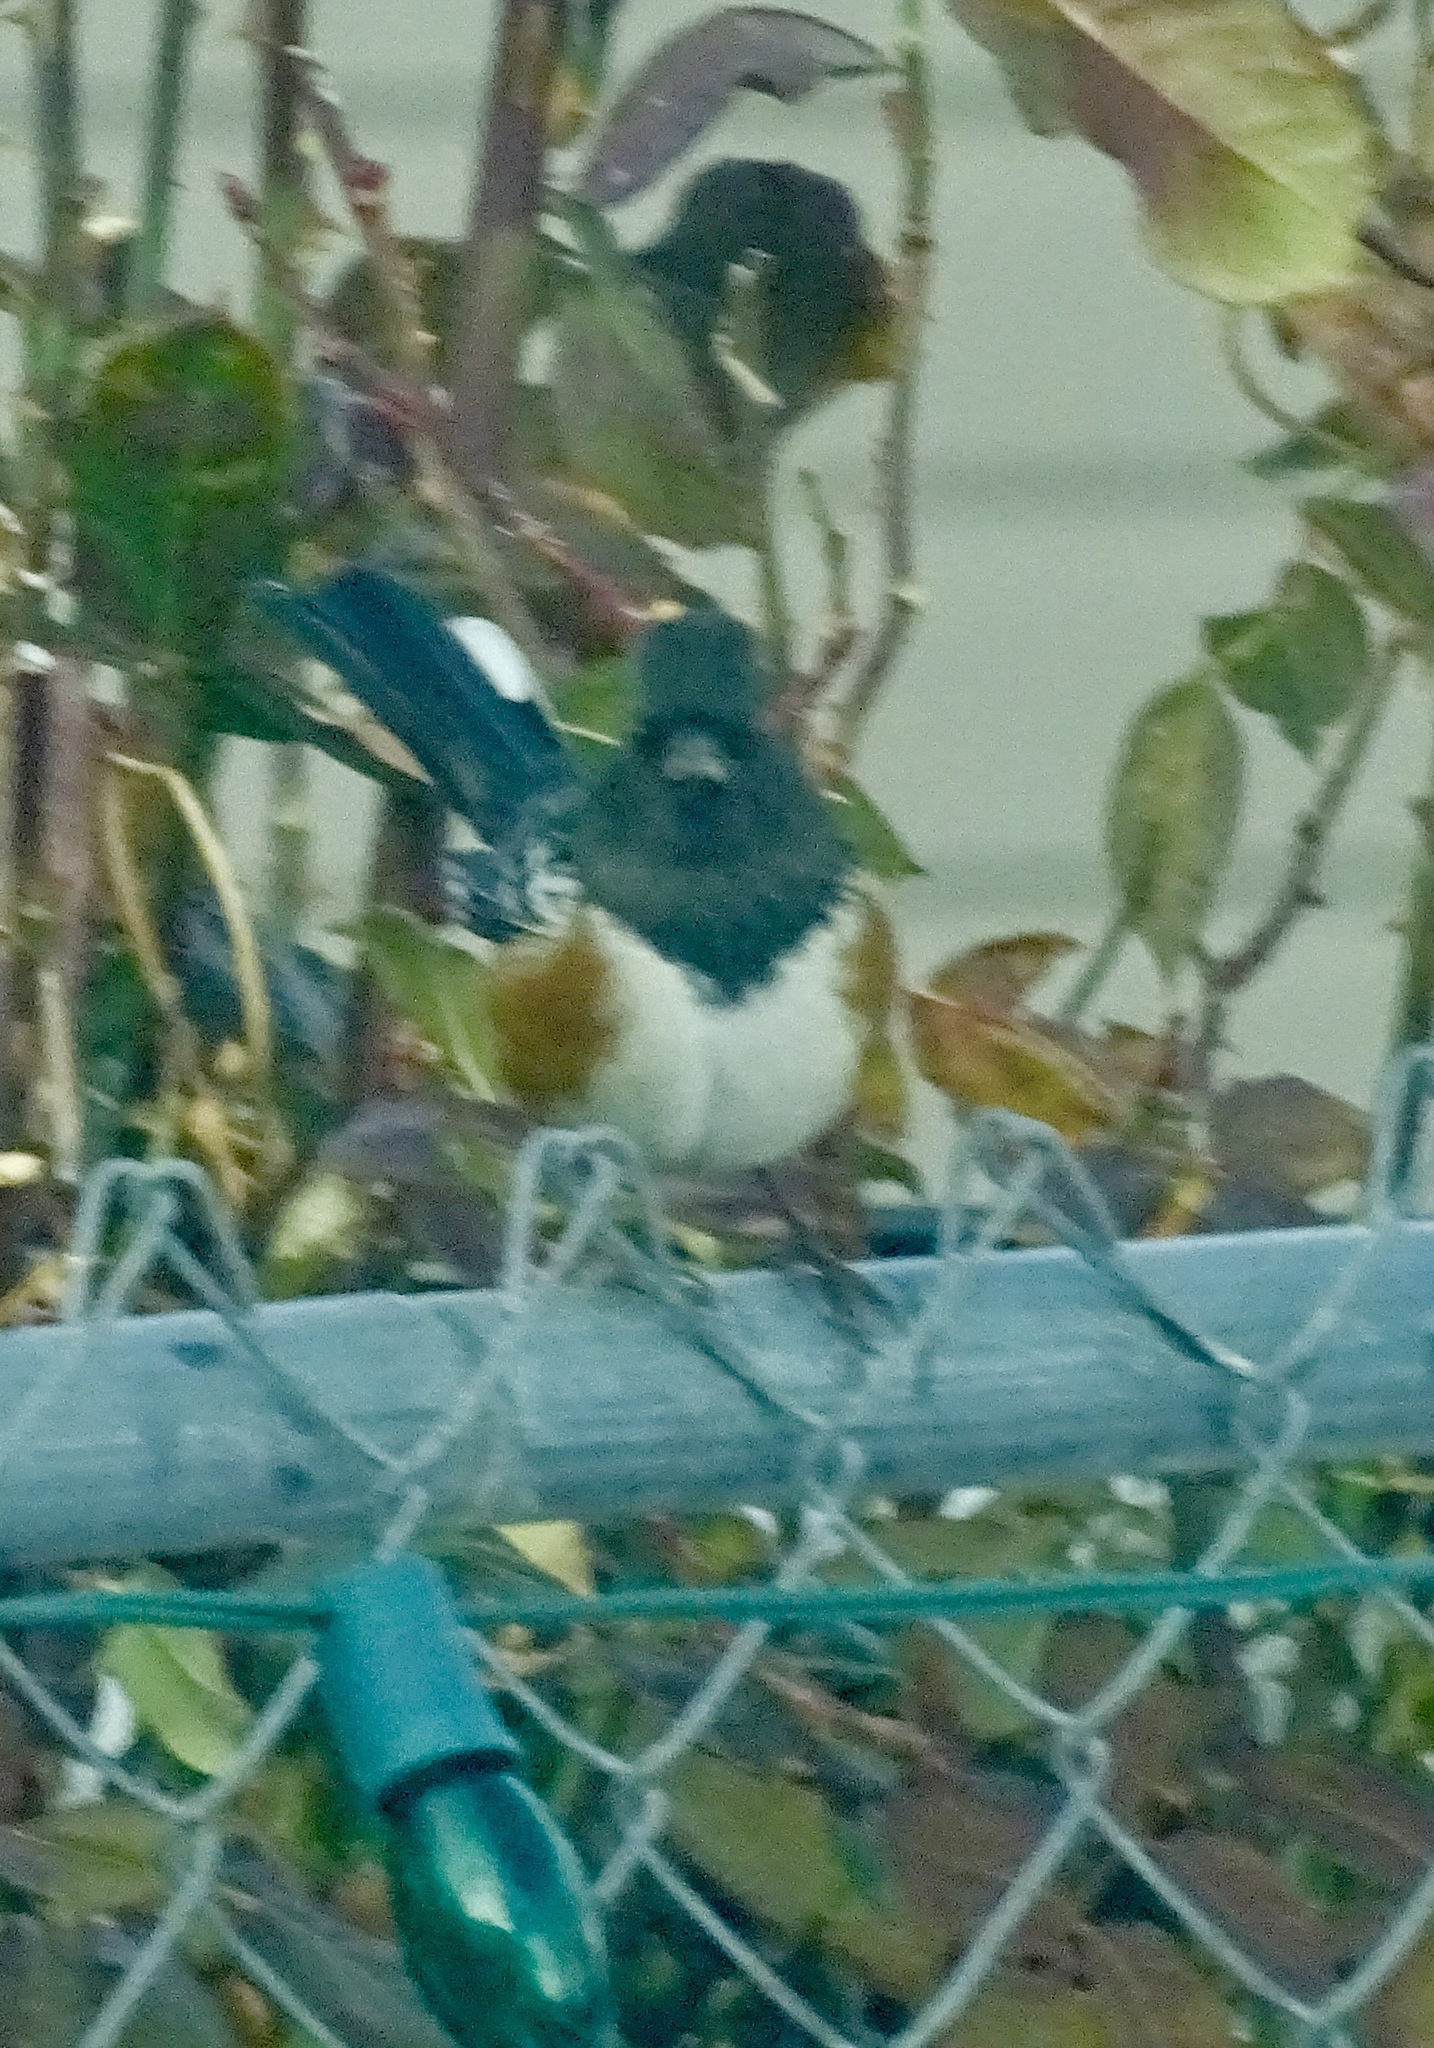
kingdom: Animalia
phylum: Chordata
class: Aves
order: Passeriformes
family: Passerellidae
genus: Pipilo
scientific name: Pipilo maculatus
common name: Spotted towhee
